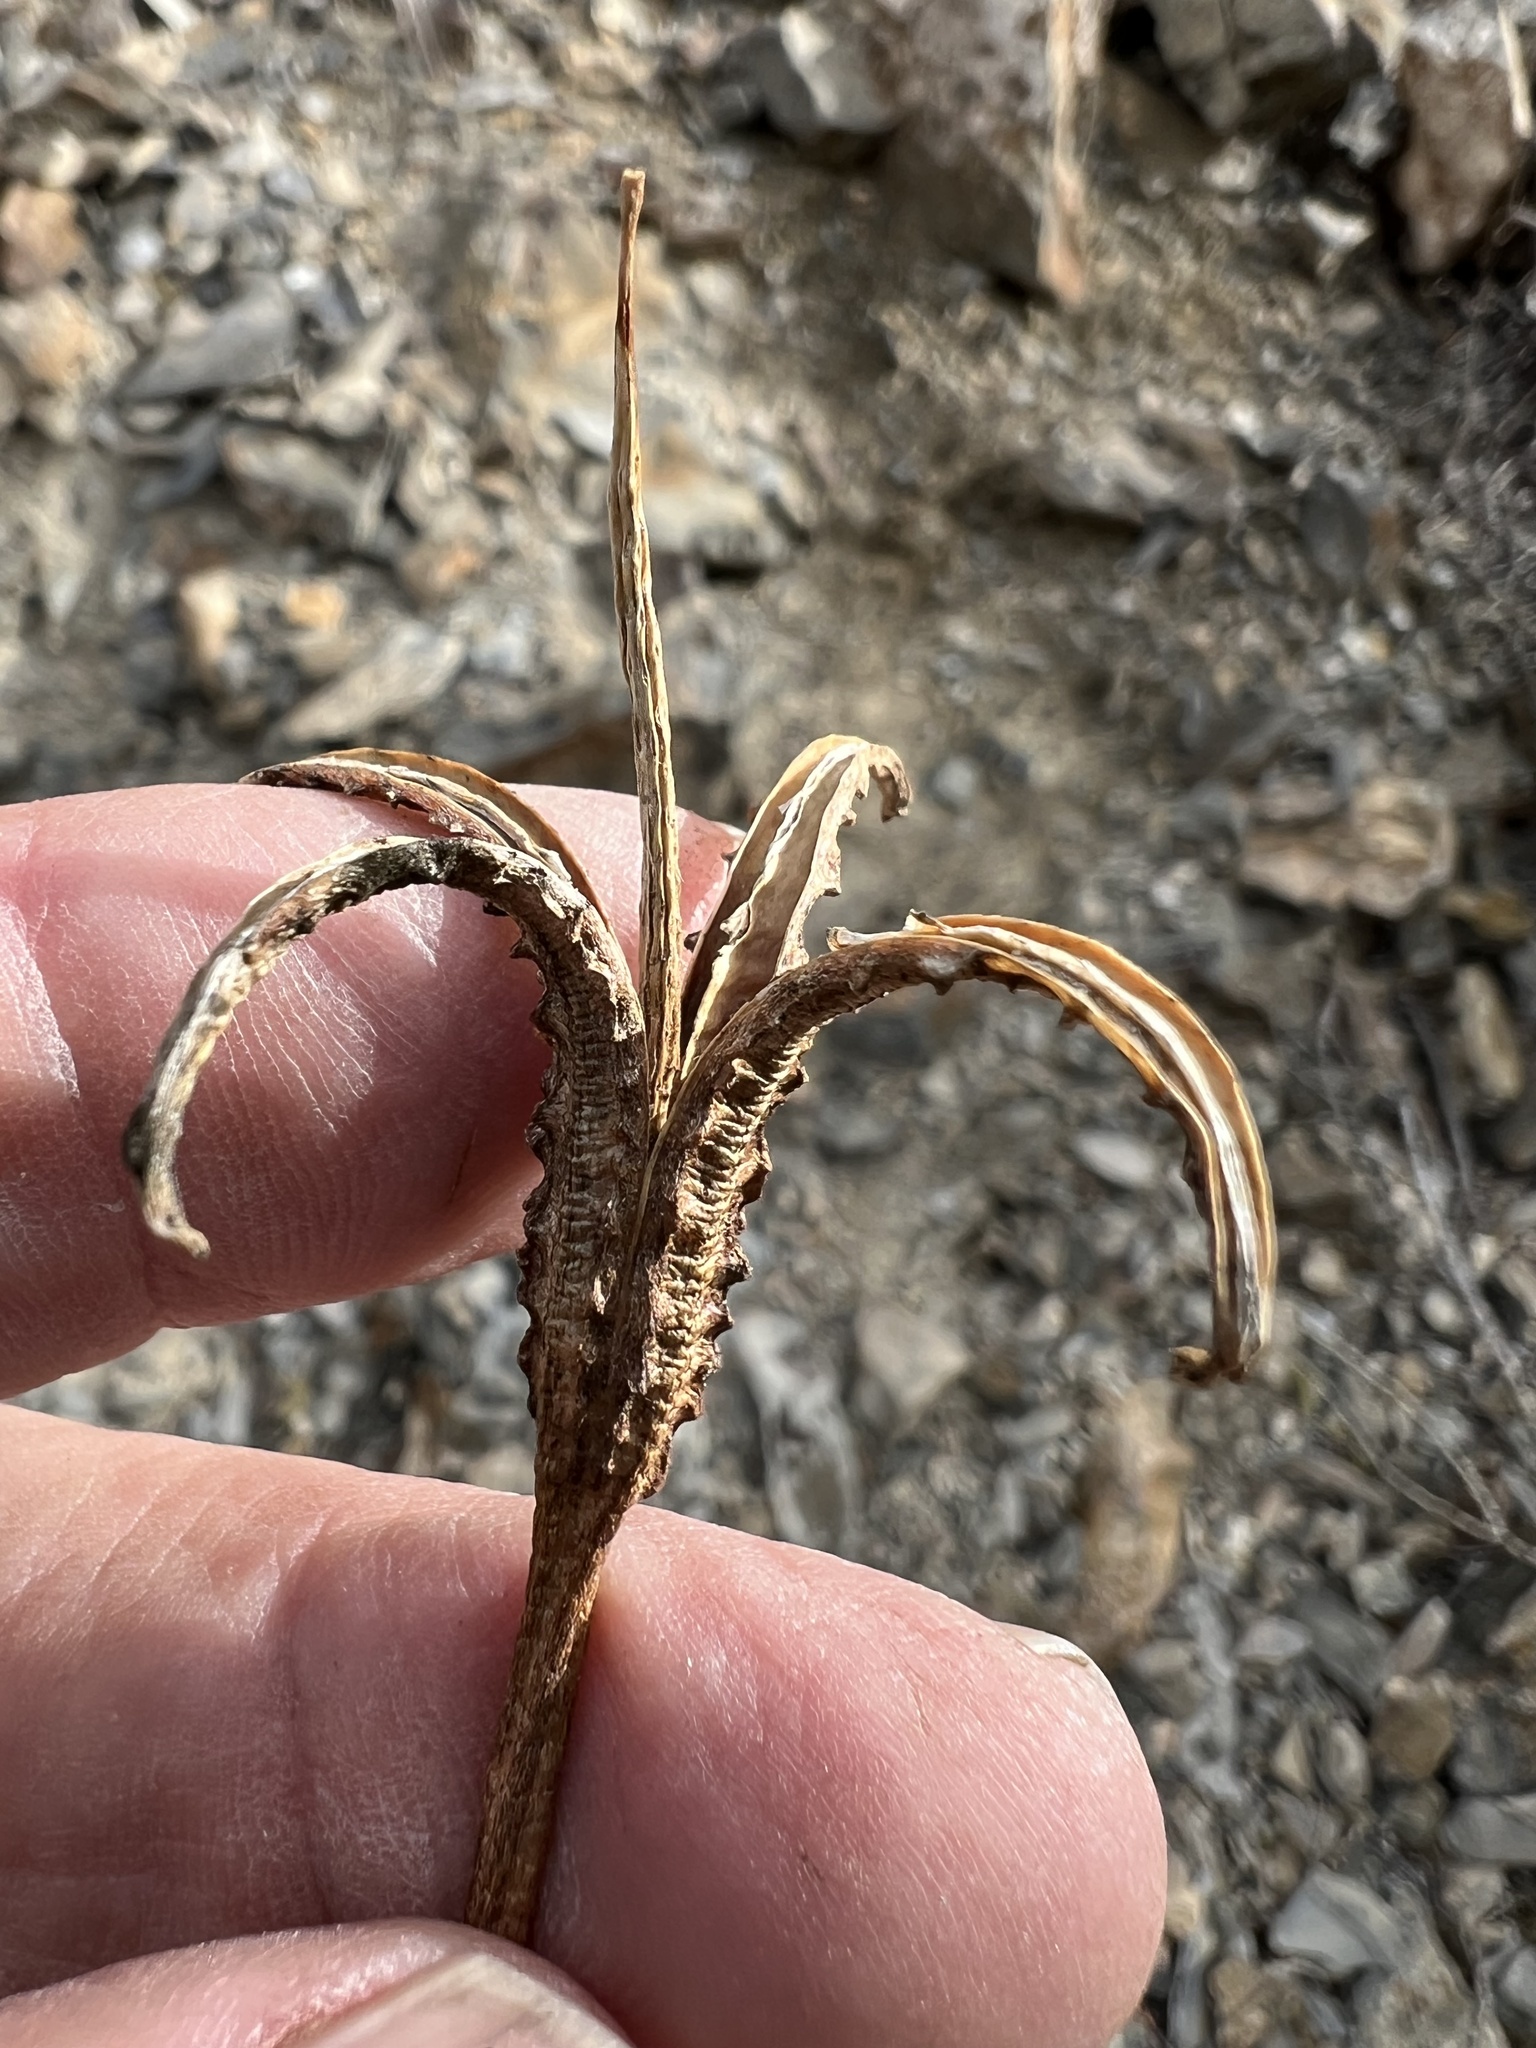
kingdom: Plantae
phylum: Tracheophyta
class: Magnoliopsida
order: Myrtales
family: Onagraceae
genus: Oenothera
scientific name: Oenothera cespitosa
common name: Tufted evening-primrose
